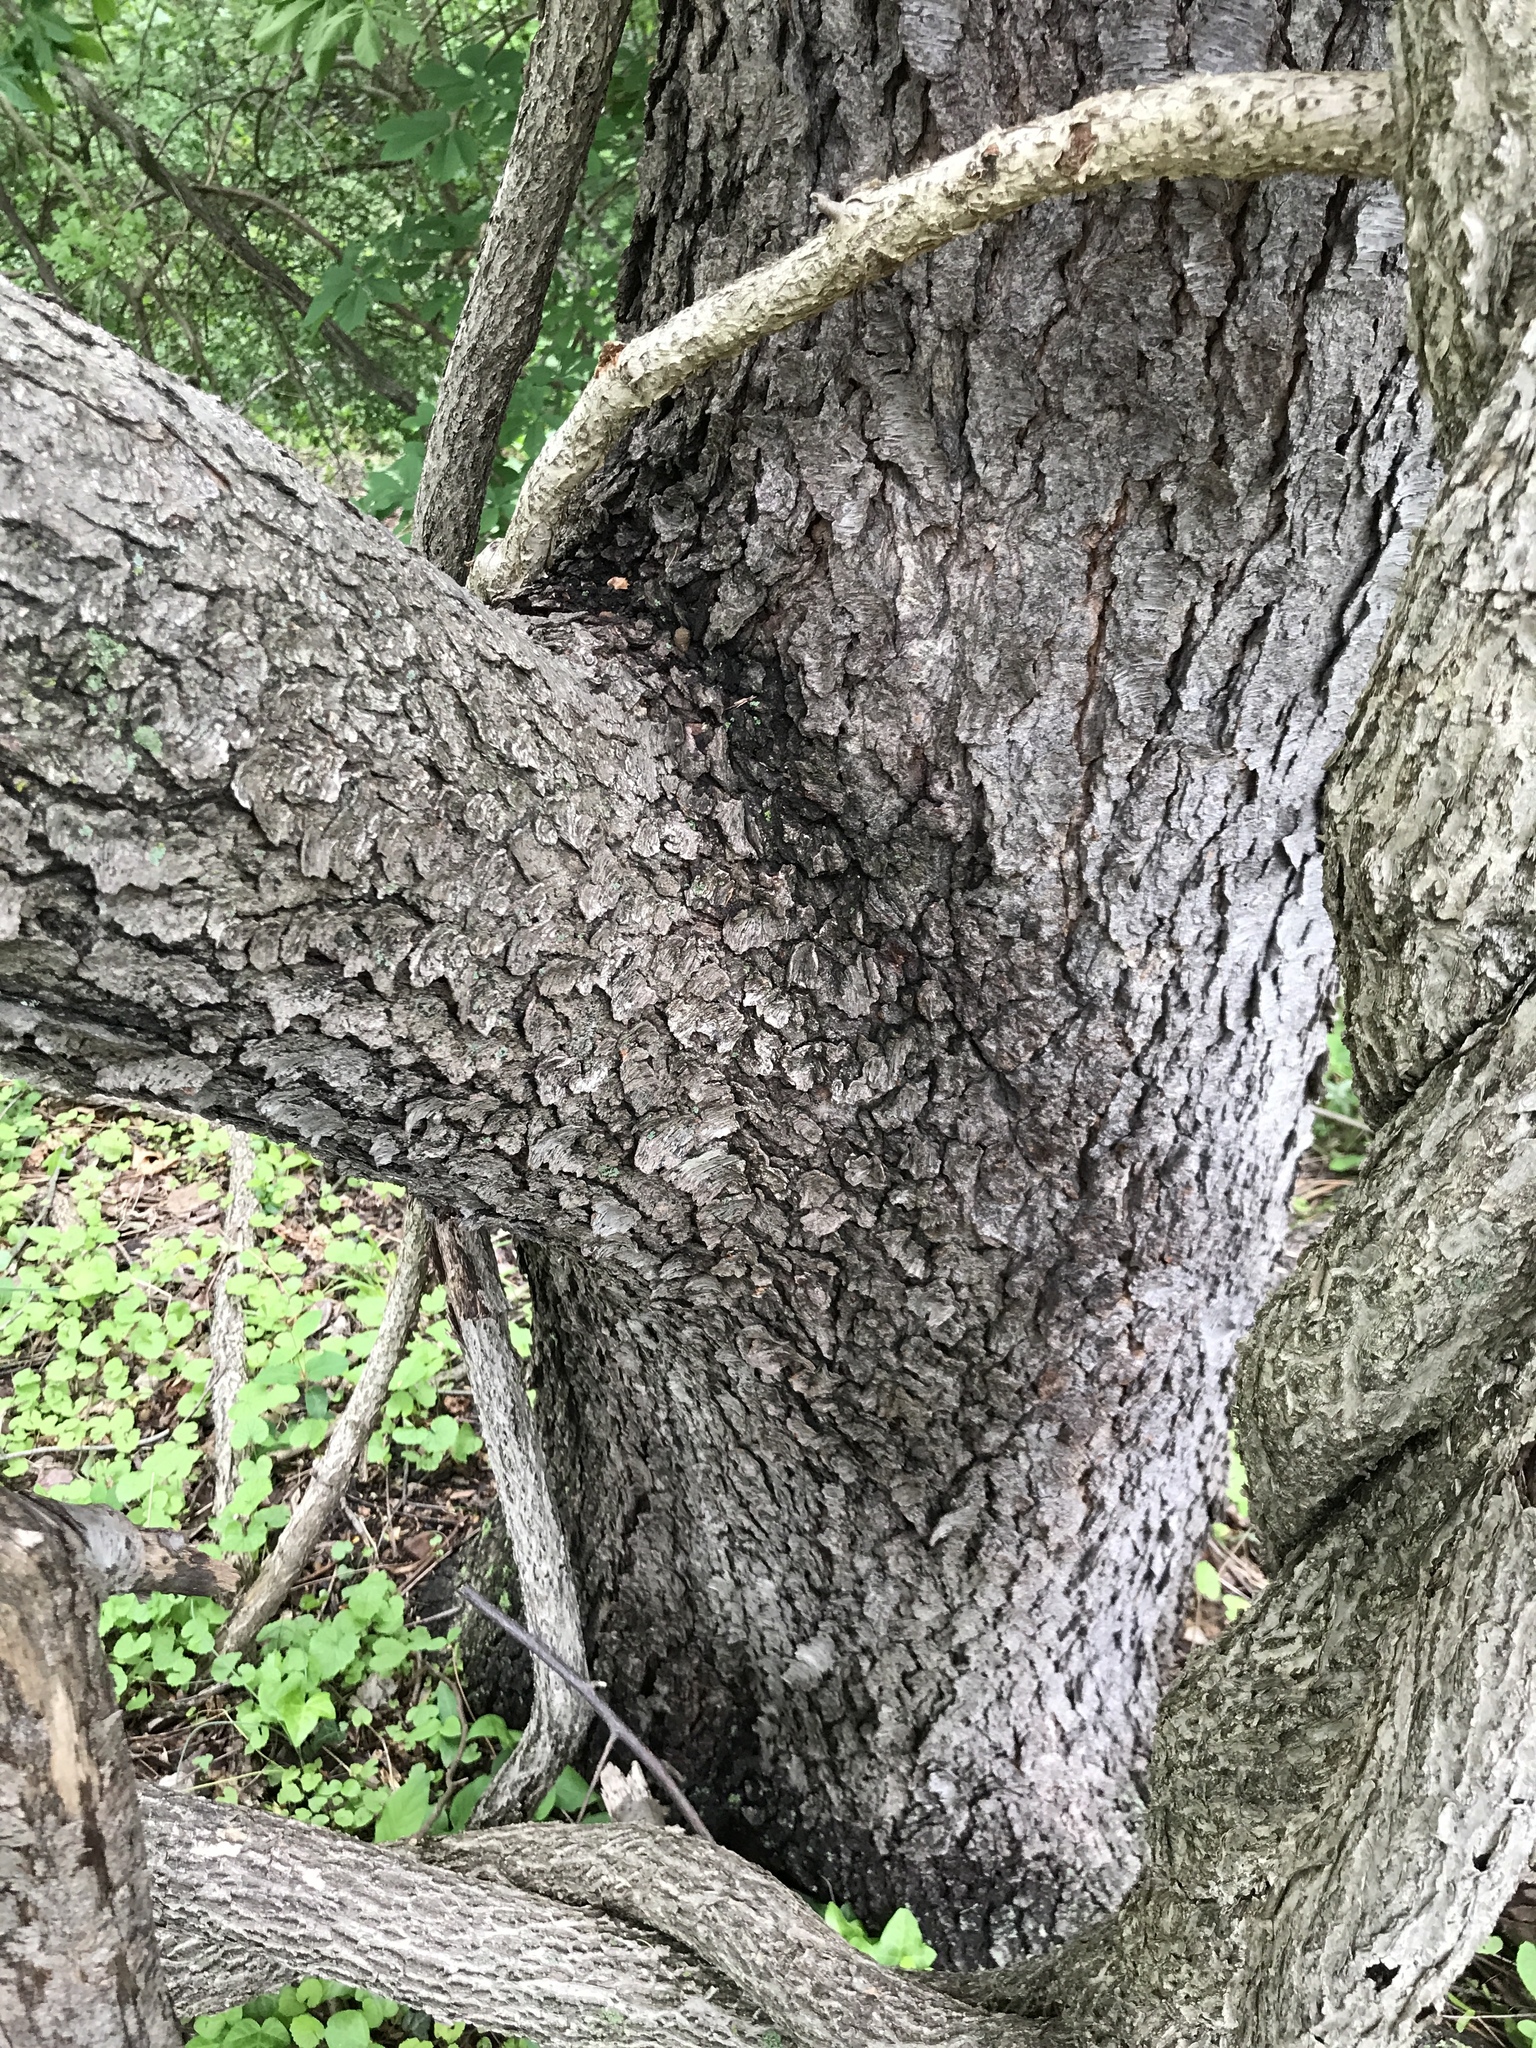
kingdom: Plantae
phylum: Tracheophyta
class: Magnoliopsida
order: Rosales
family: Rosaceae
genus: Prunus
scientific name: Prunus serotina
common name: Black cherry
